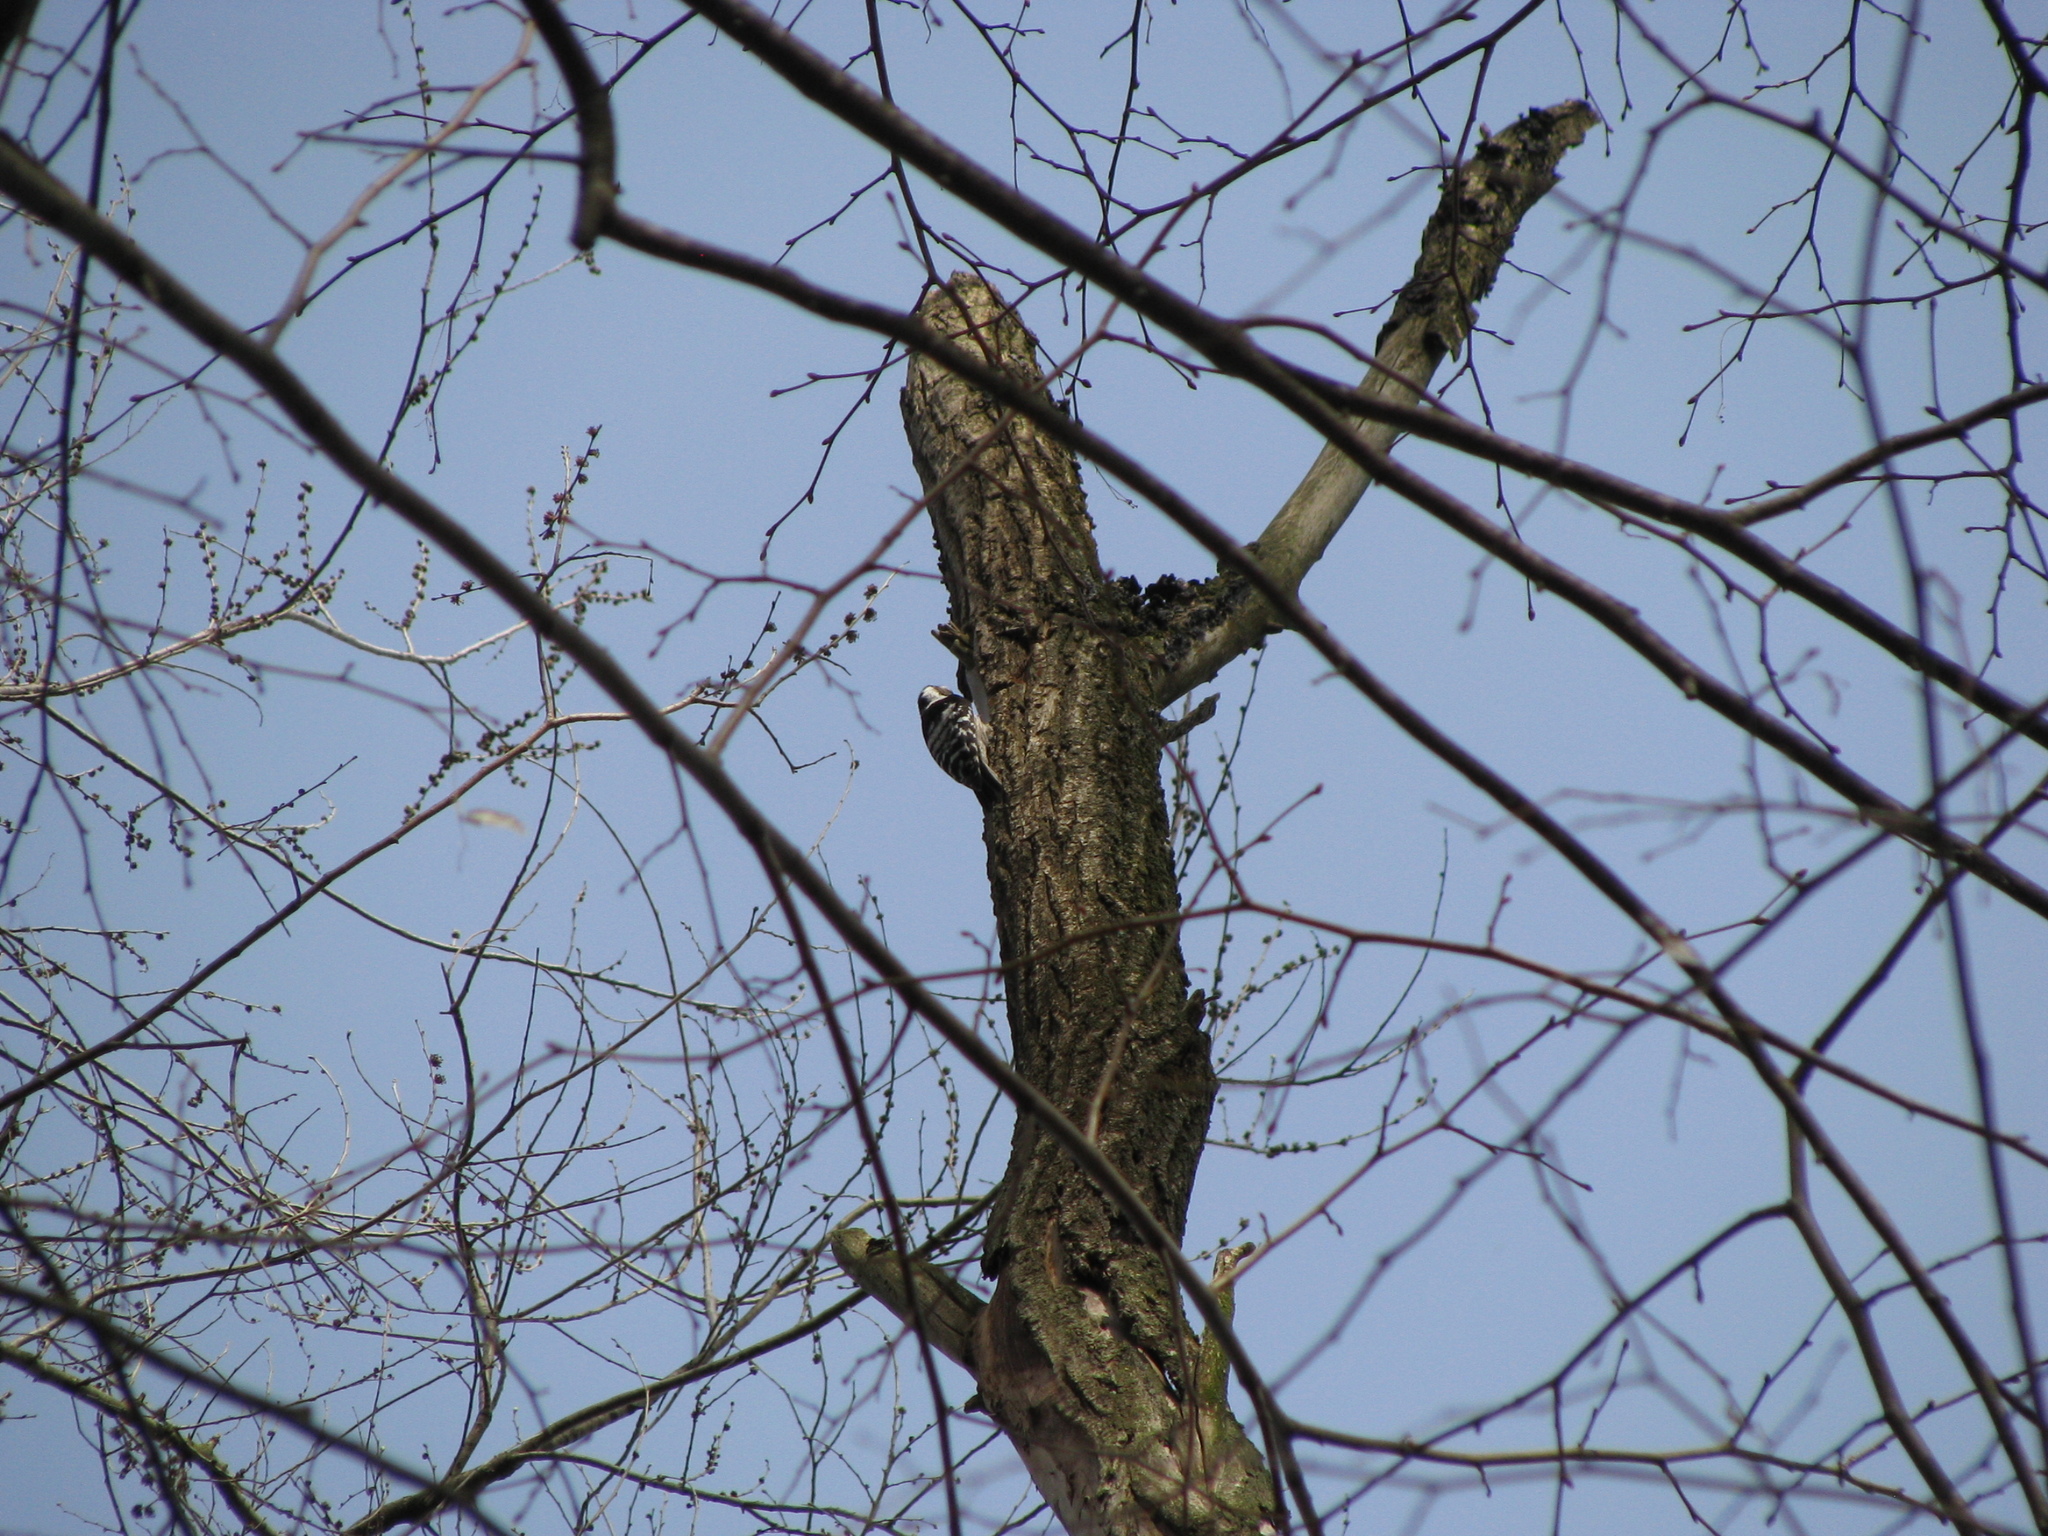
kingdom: Animalia
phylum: Chordata
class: Aves
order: Piciformes
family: Picidae
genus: Dryobates
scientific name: Dryobates minor
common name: Lesser spotted woodpecker
